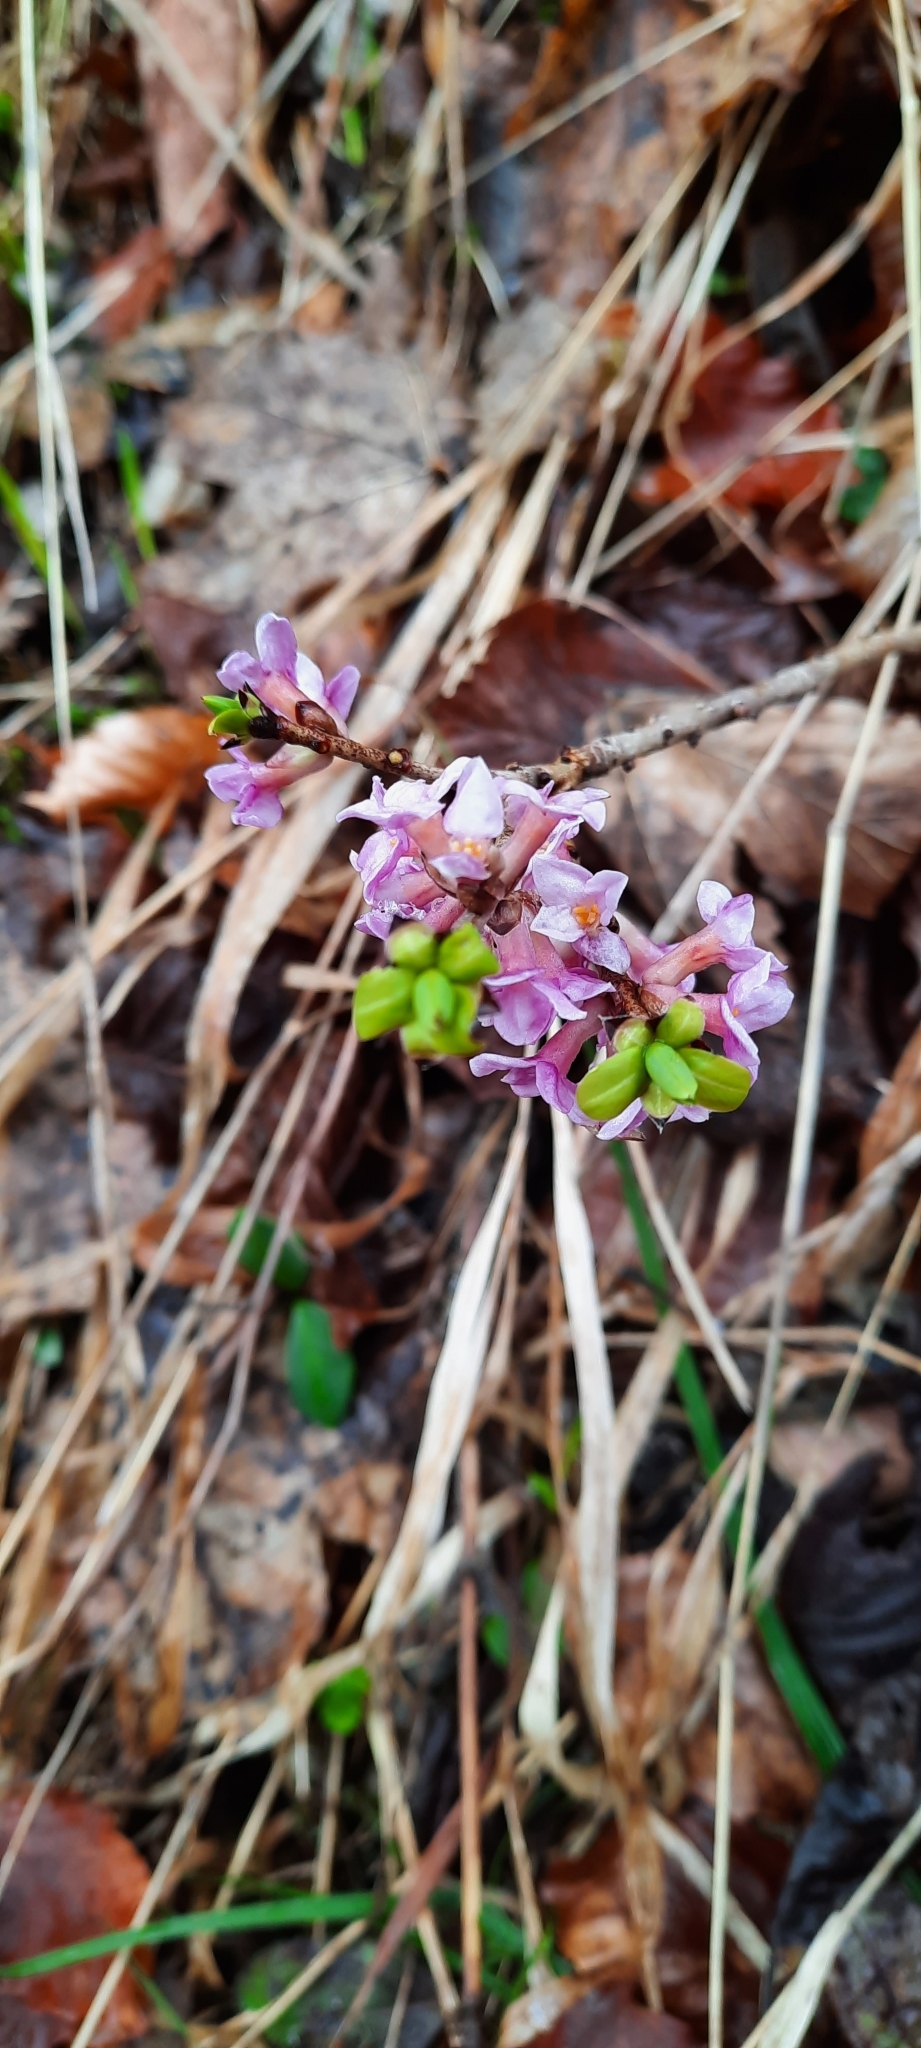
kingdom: Plantae
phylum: Tracheophyta
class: Magnoliopsida
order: Malvales
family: Thymelaeaceae
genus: Daphne
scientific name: Daphne mezereum
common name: Mezereon
